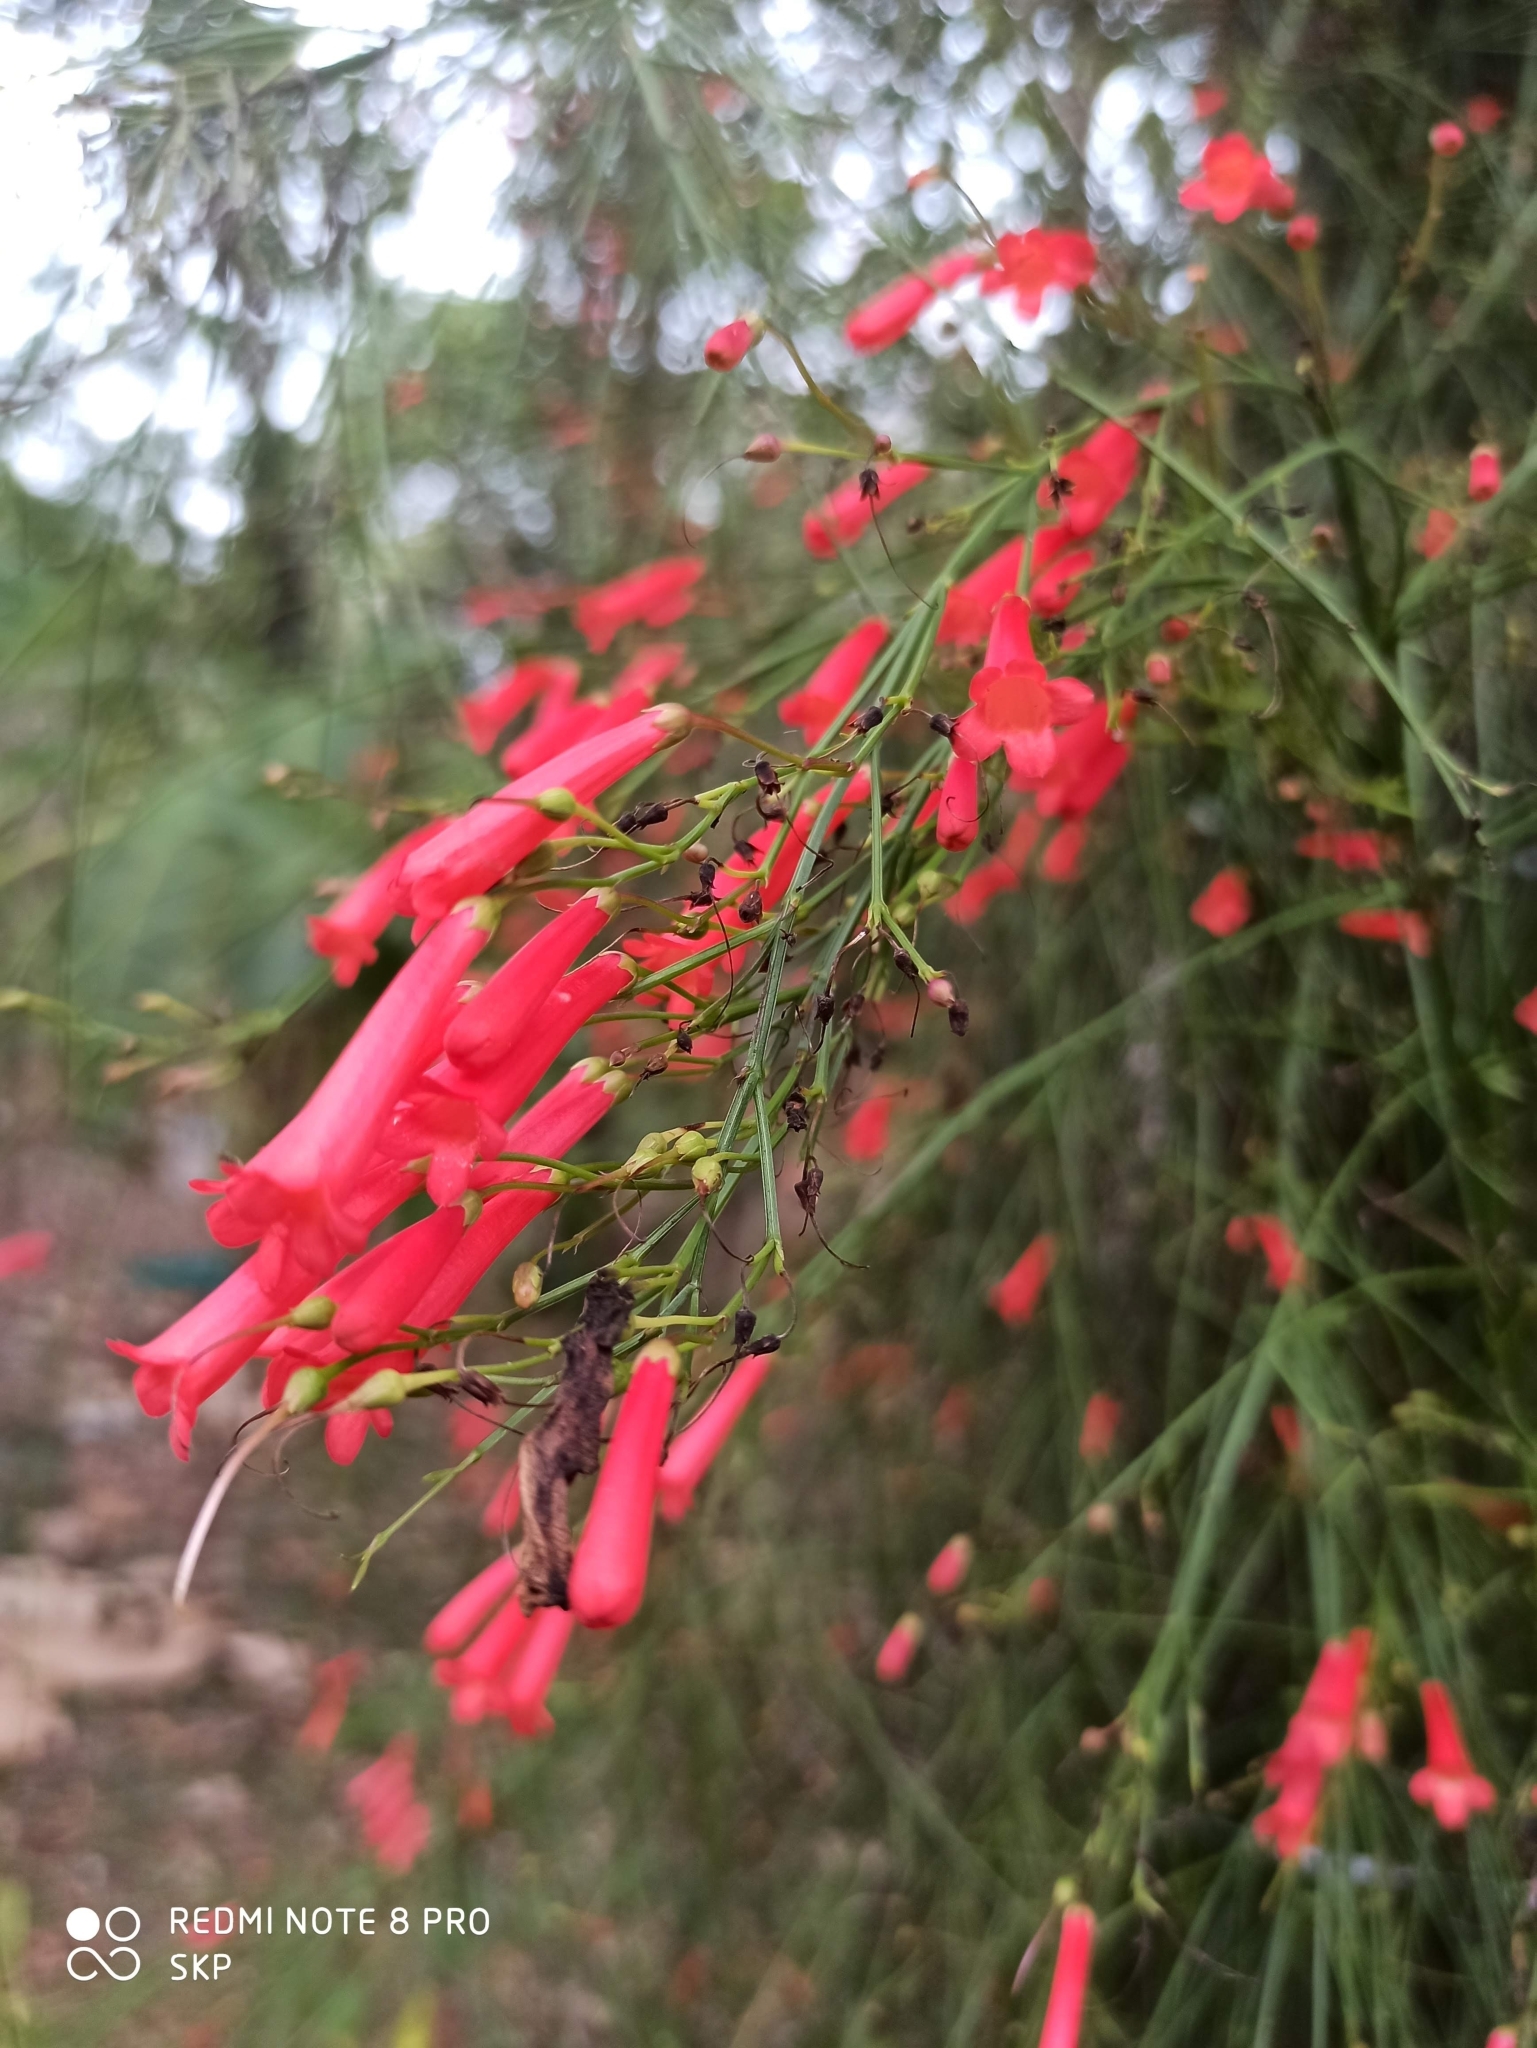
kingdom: Plantae
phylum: Tracheophyta
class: Magnoliopsida
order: Lamiales
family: Plantaginaceae
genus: Russelia
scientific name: Russelia equisetiformis
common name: Fountainbush
